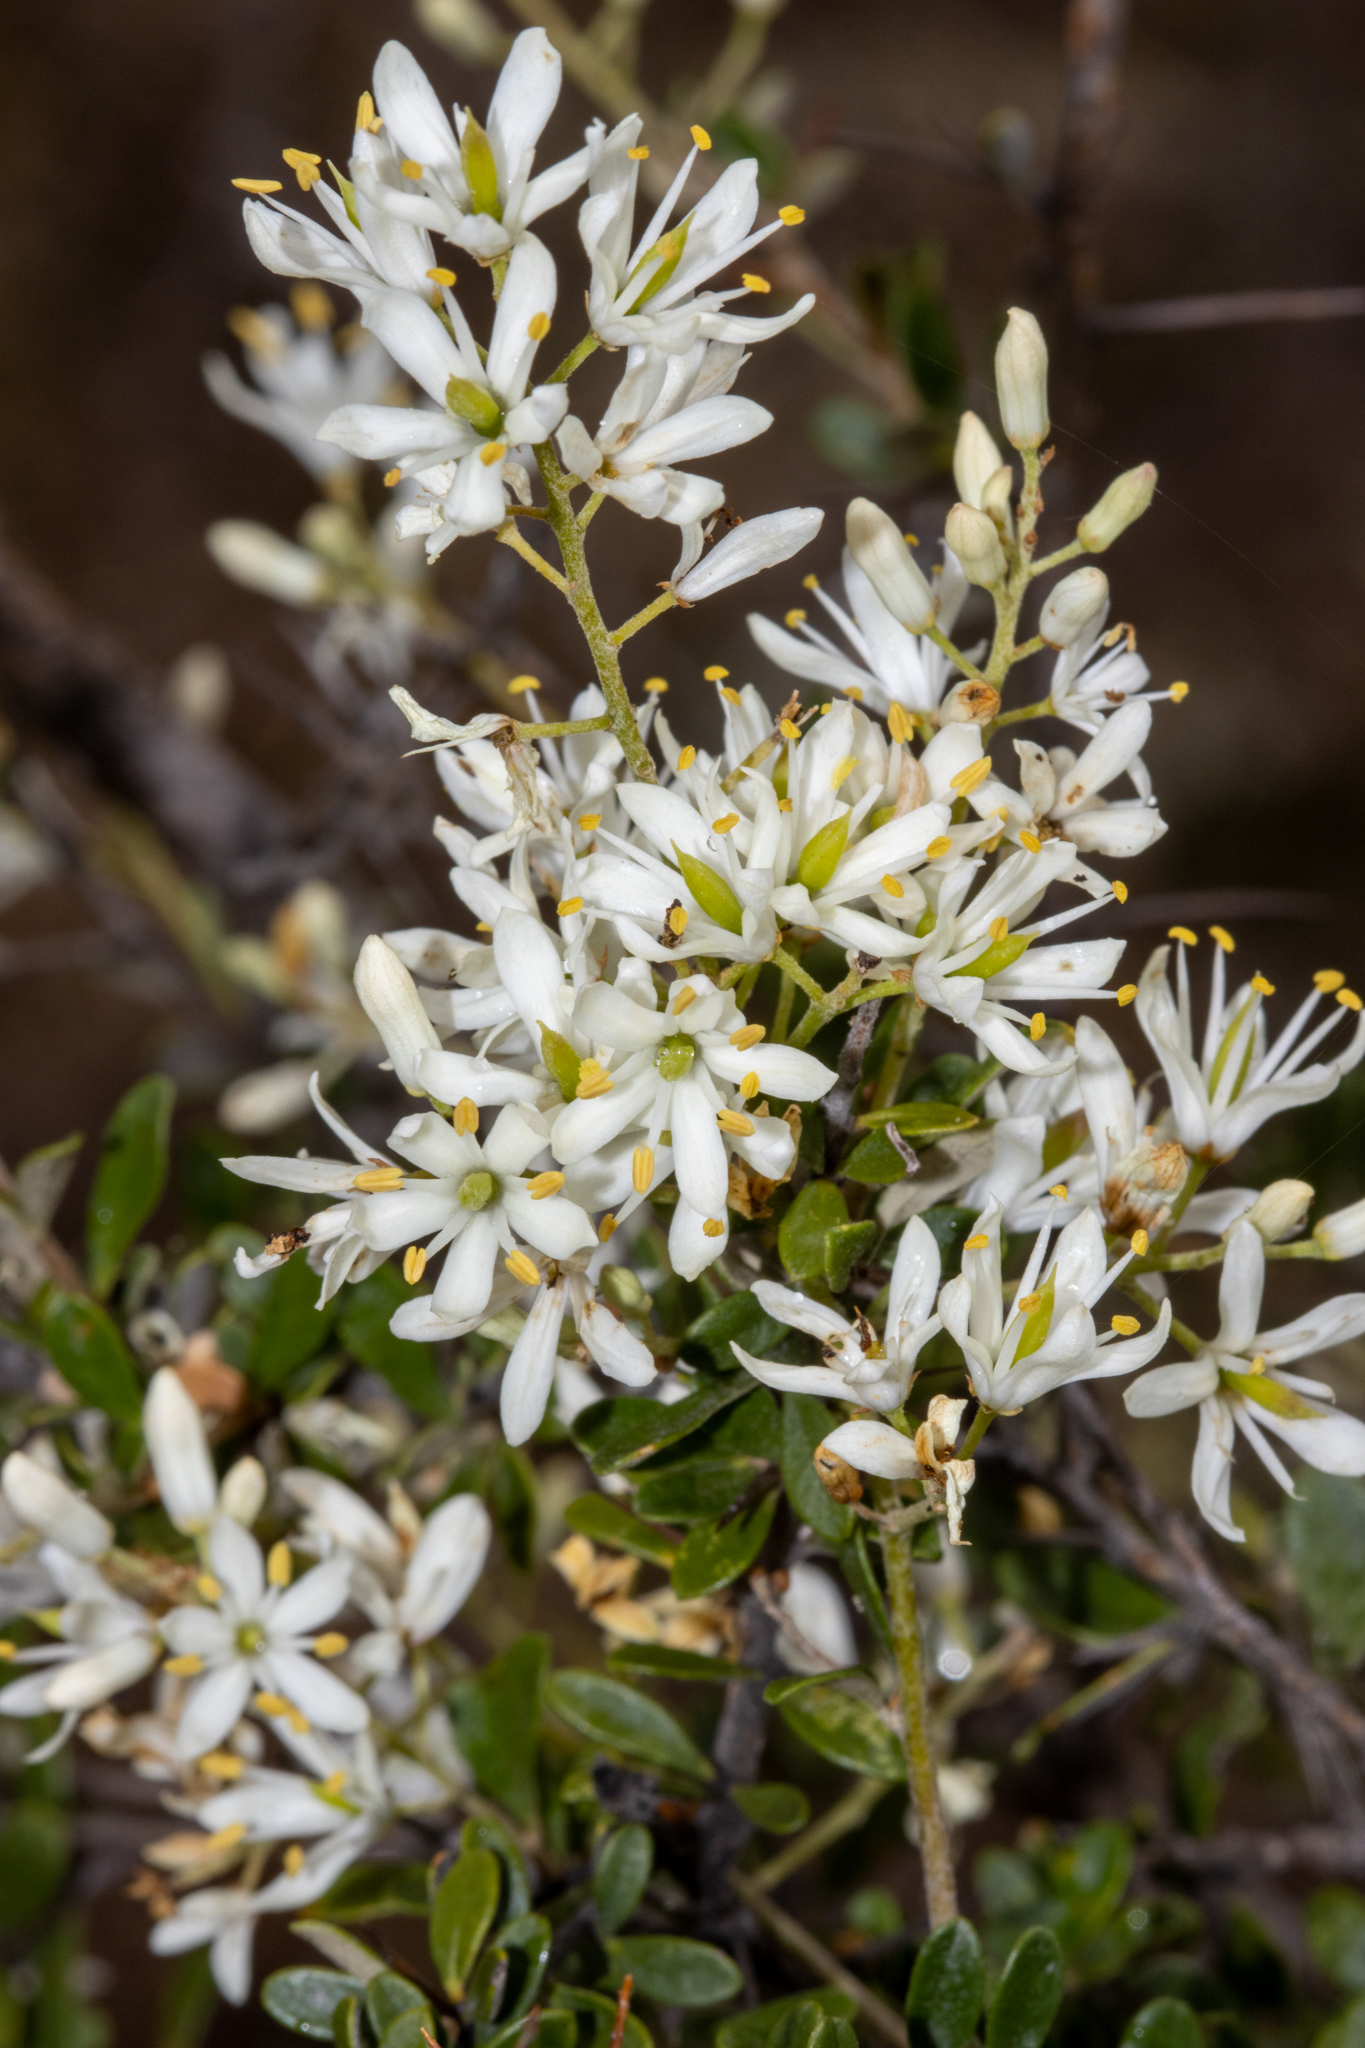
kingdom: Plantae
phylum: Tracheophyta
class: Magnoliopsida
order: Apiales
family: Pittosporaceae
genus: Bursaria
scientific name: Bursaria spinosa
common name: Australian blackthorn
